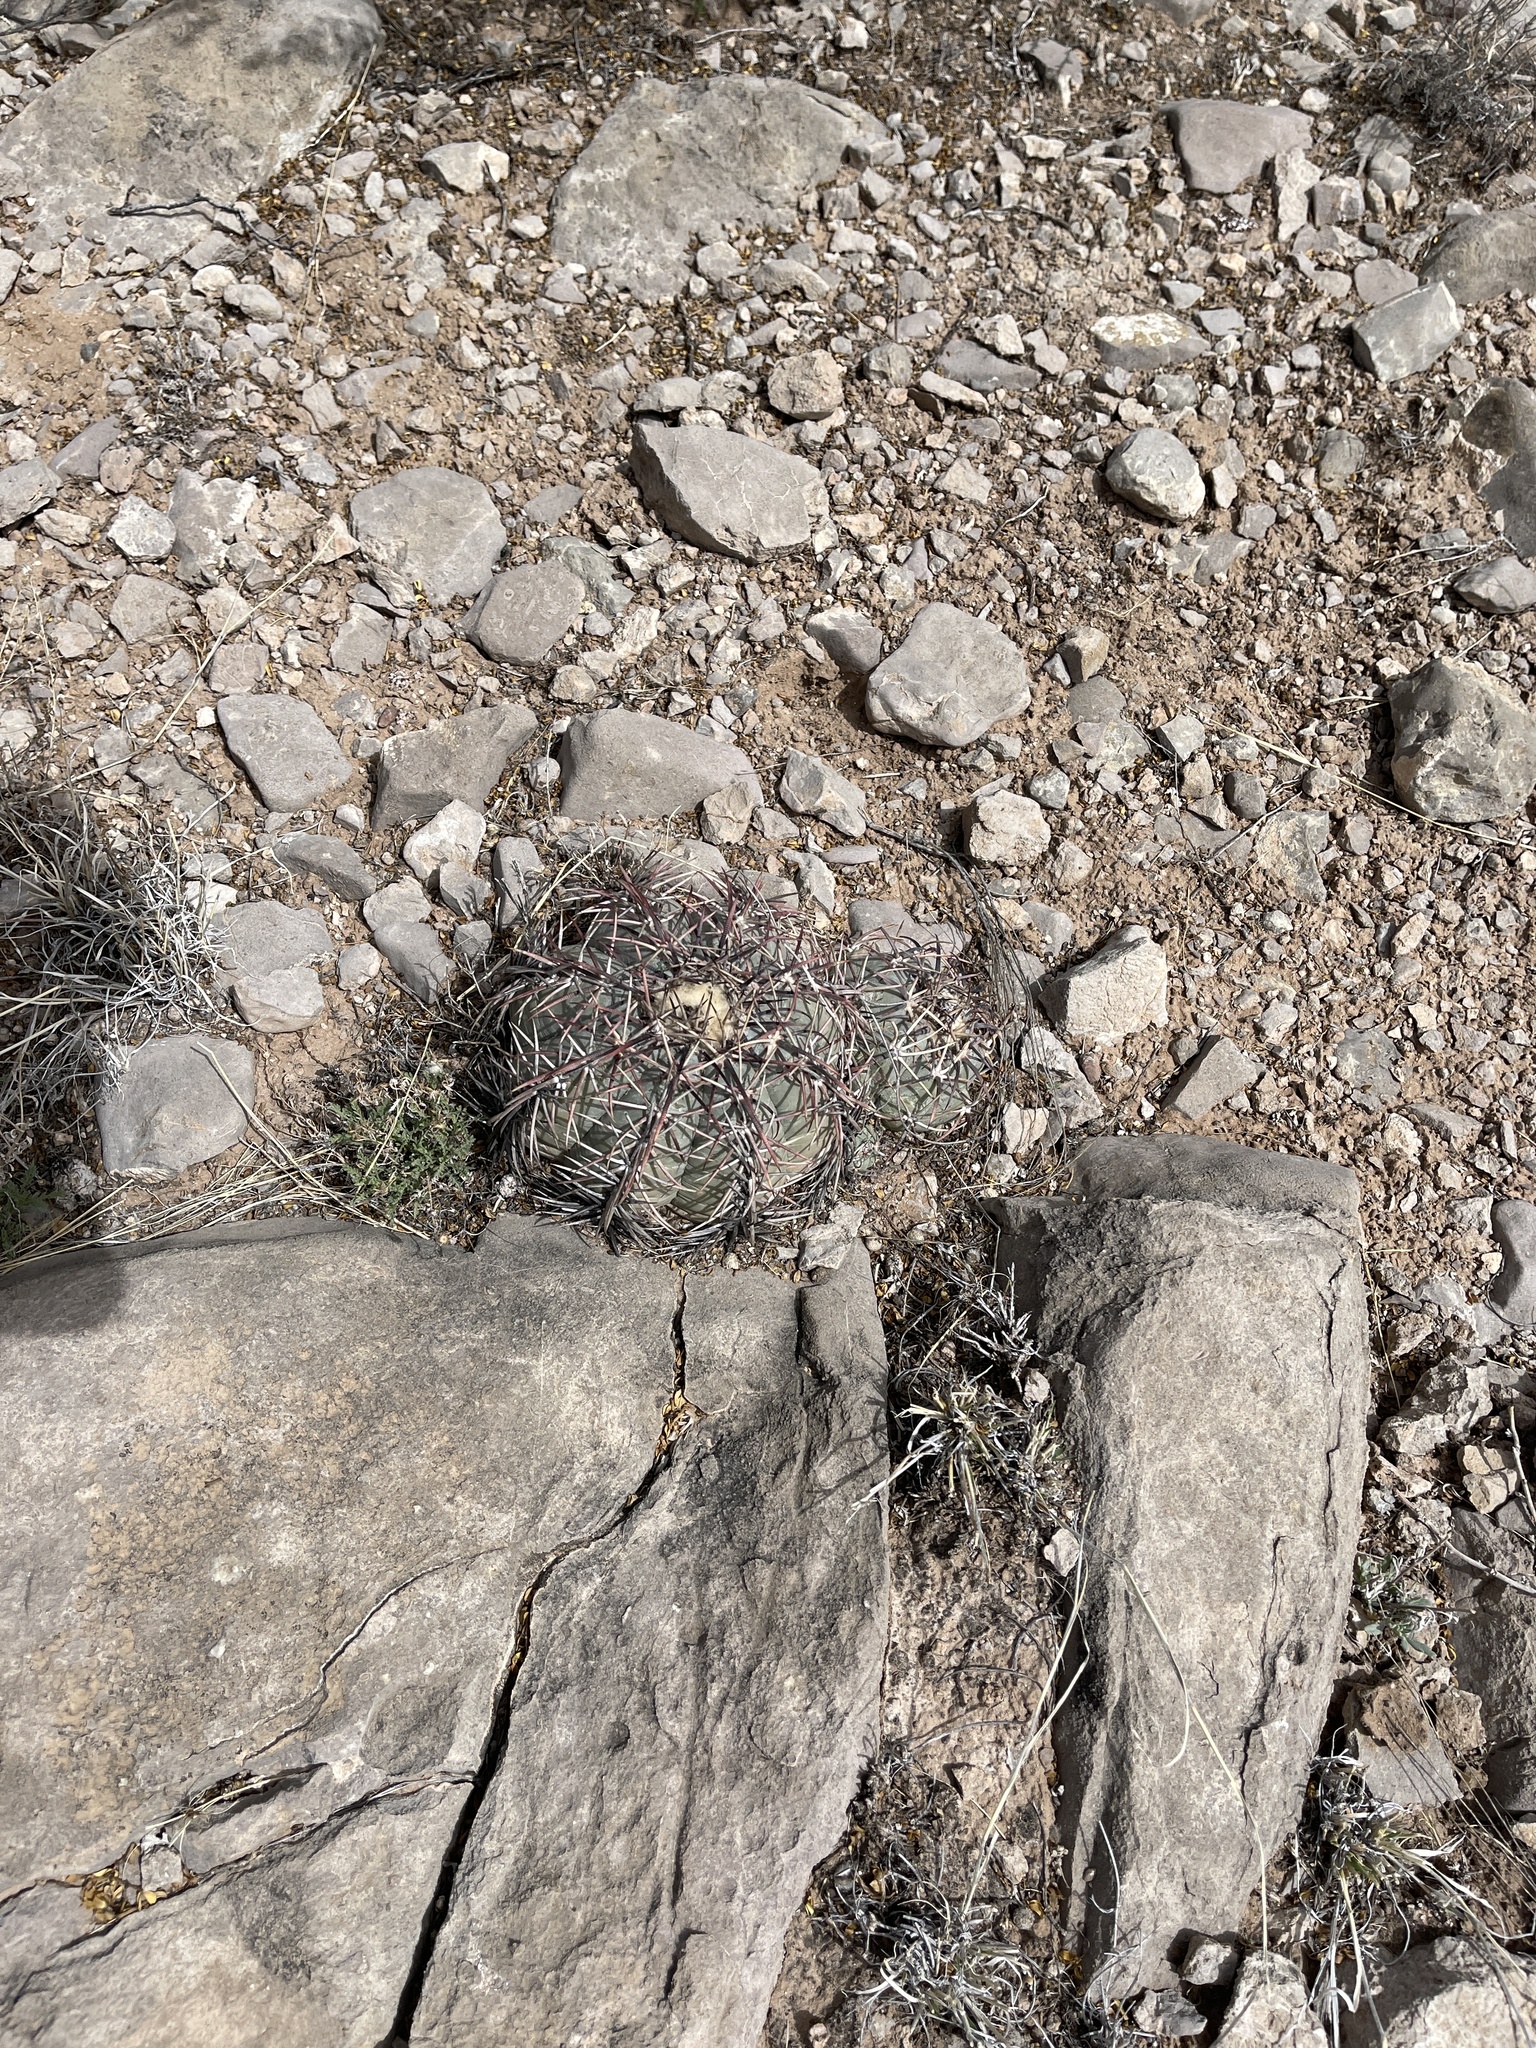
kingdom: Plantae
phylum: Tracheophyta
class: Magnoliopsida
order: Caryophyllales
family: Cactaceae
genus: Echinocactus
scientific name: Echinocactus horizonthalonius
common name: Devilshead
